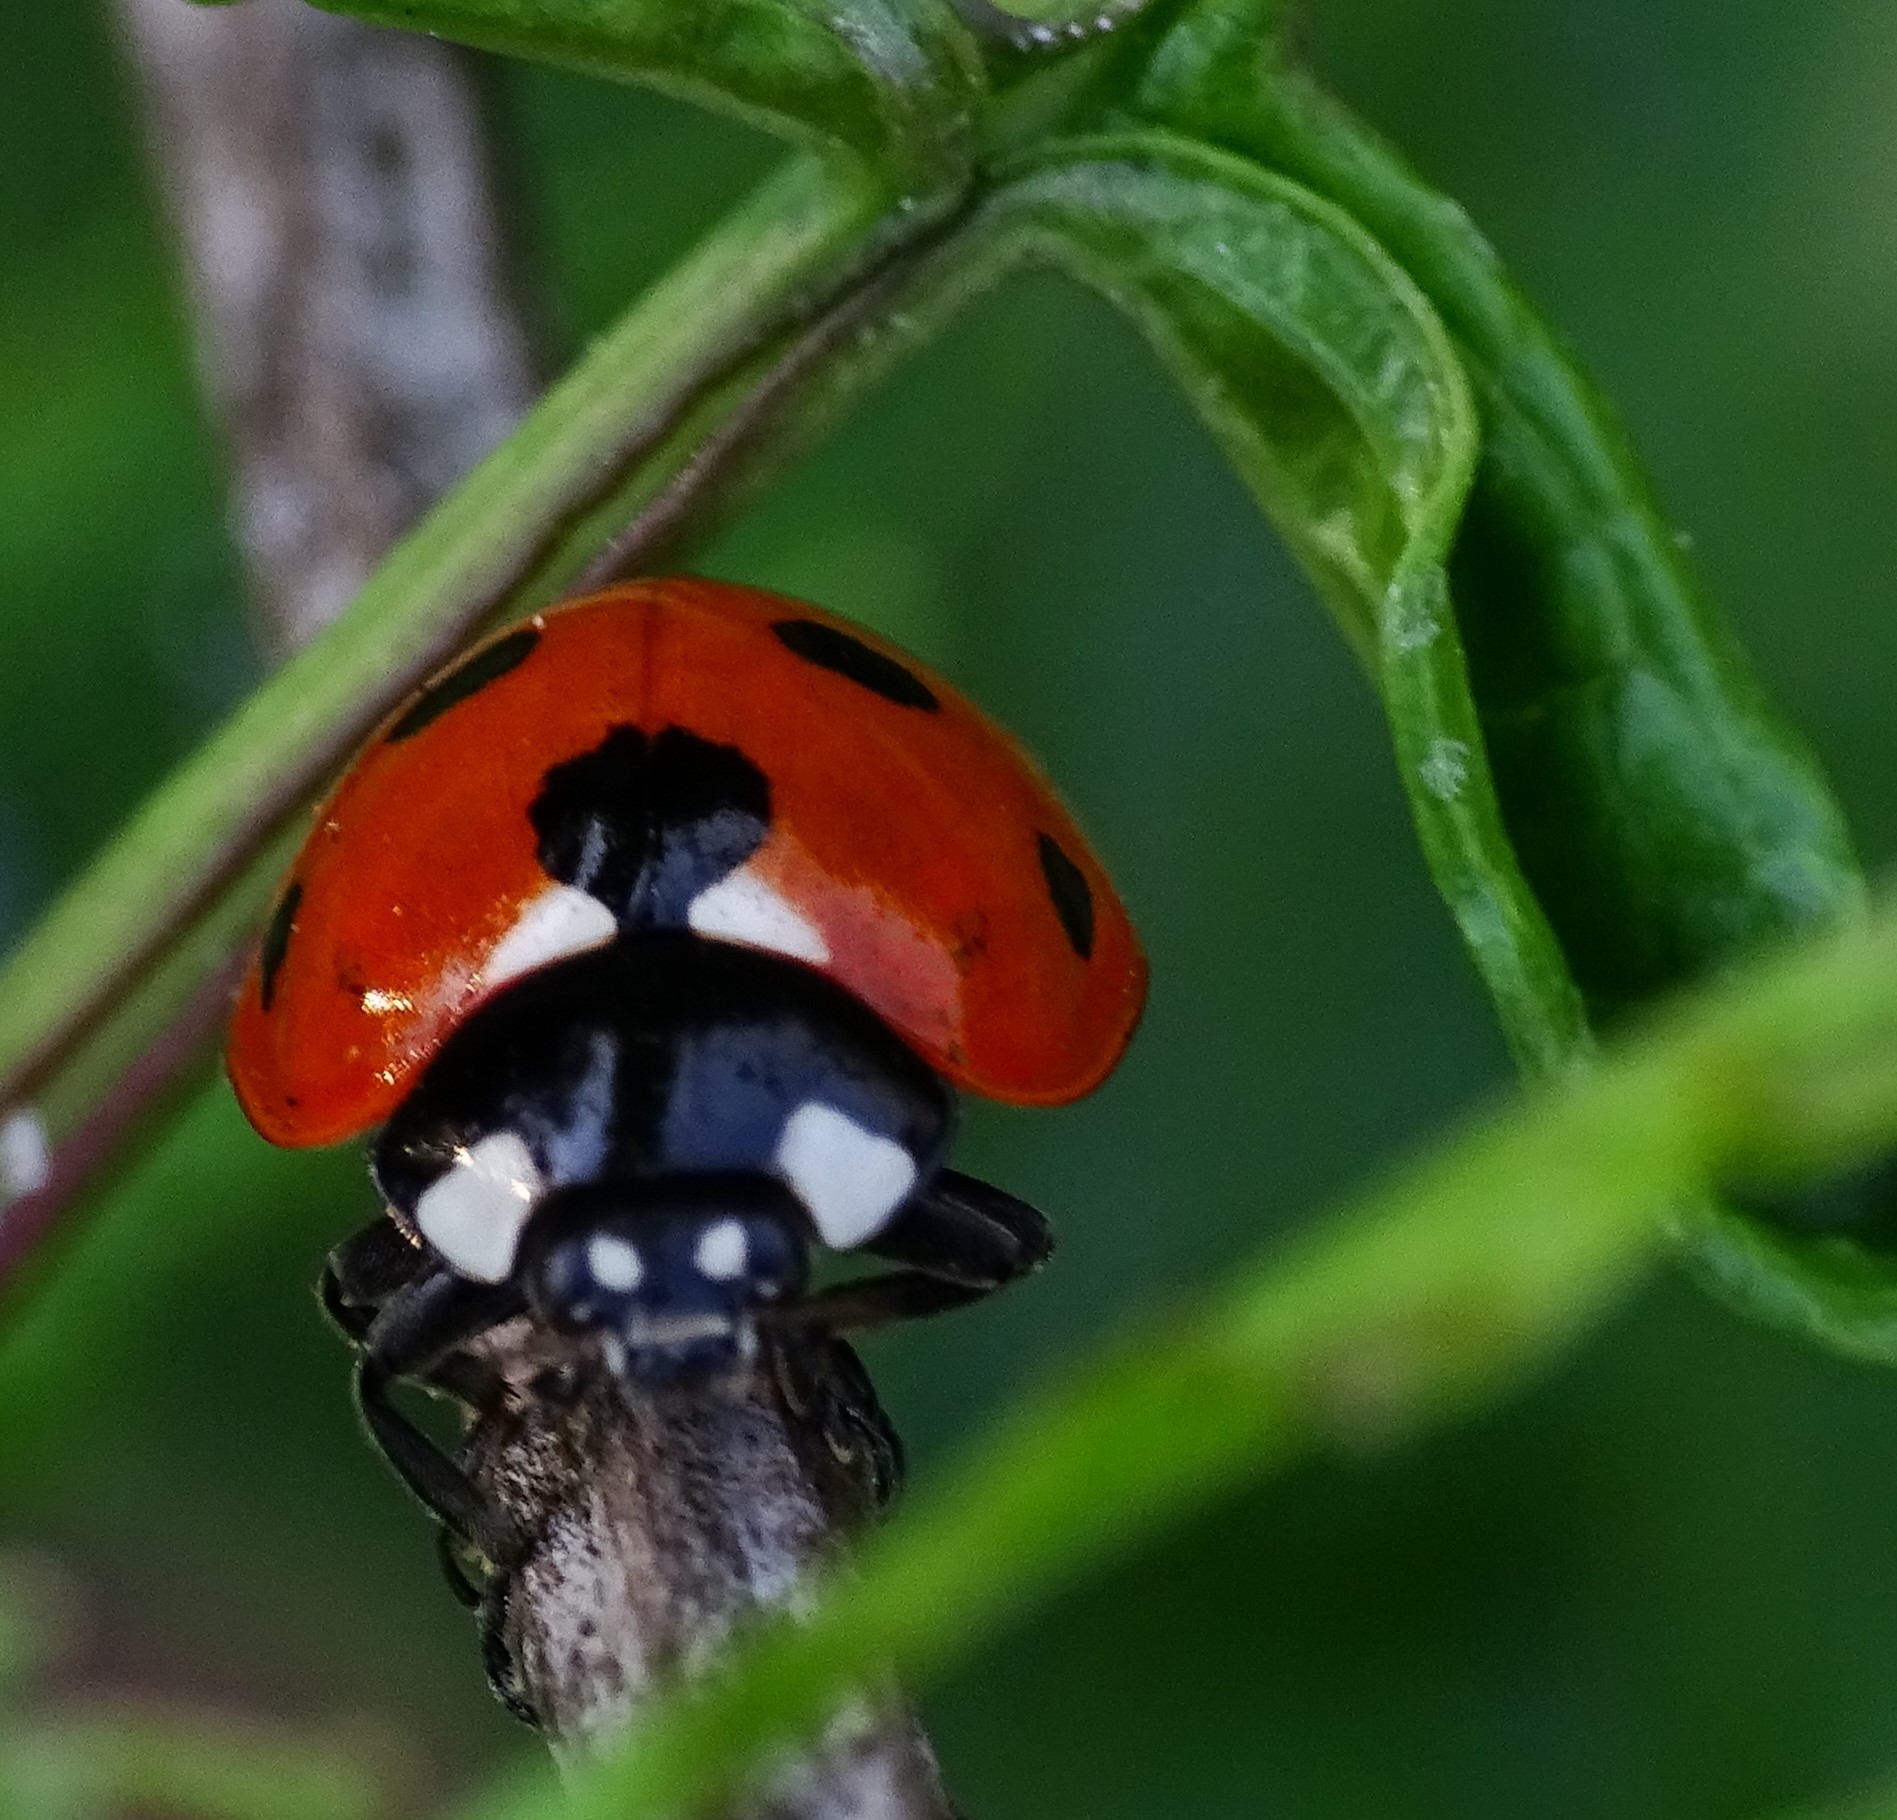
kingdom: Animalia
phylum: Arthropoda
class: Insecta
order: Coleoptera
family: Coccinellidae
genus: Coccinella
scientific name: Coccinella septempunctata
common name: Sevenspotted lady beetle
